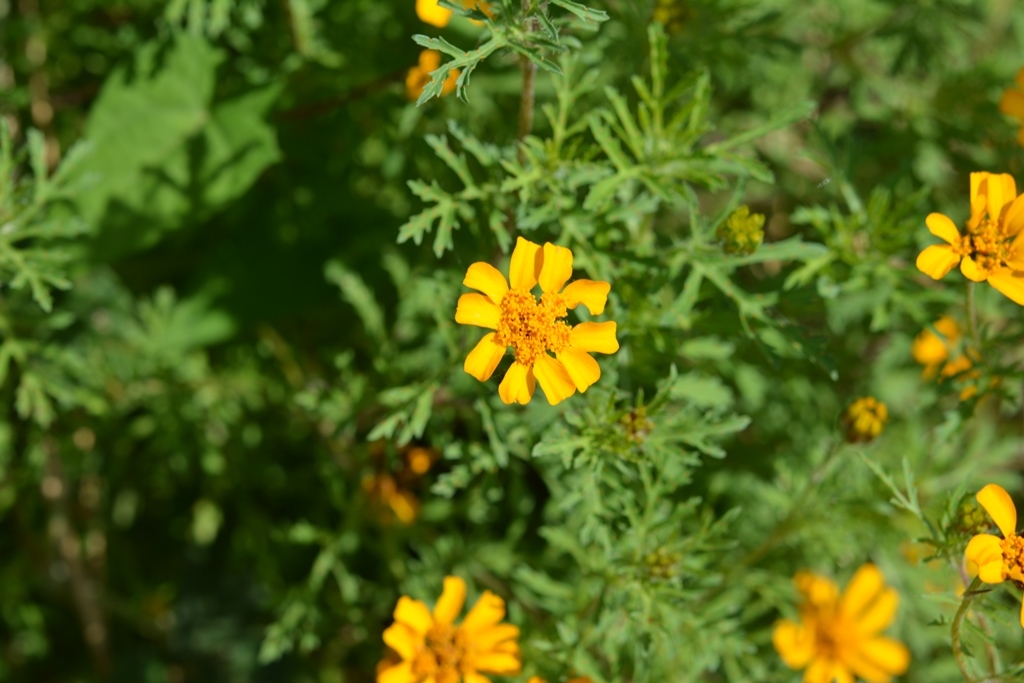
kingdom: Plantae
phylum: Tracheophyta
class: Magnoliopsida
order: Asterales
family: Asteraceae
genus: Dyssodia
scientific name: Dyssodia decipiens
